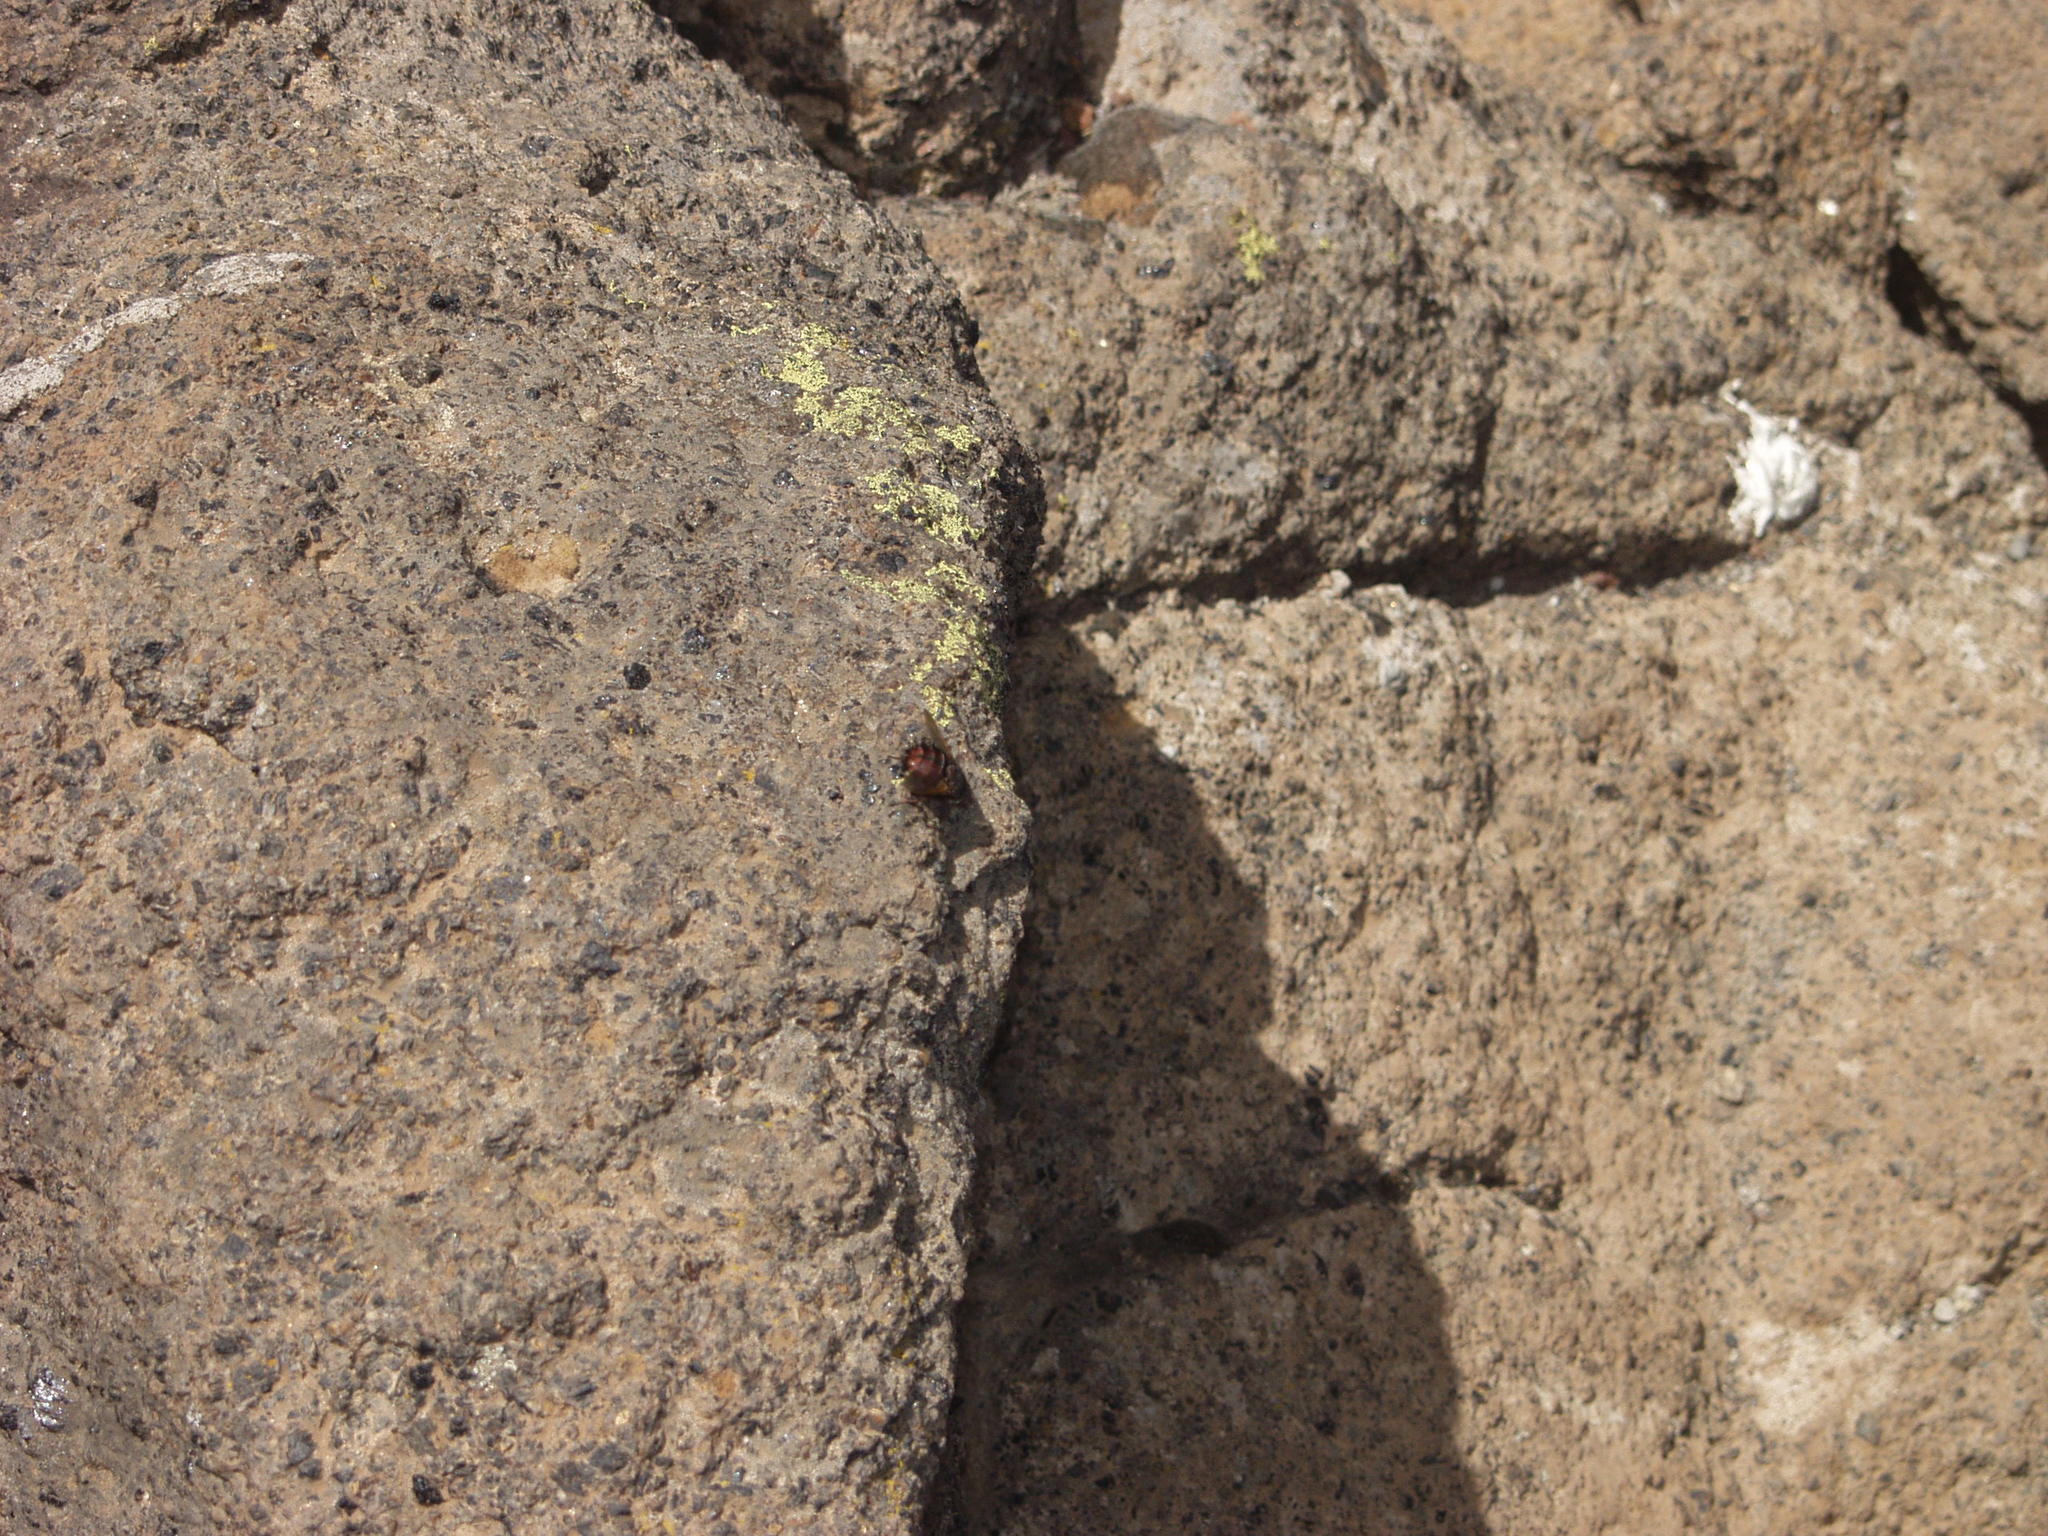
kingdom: Animalia
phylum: Arthropoda
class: Insecta
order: Diptera
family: Tachinidae
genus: Tachina
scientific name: Tachina canariensis
